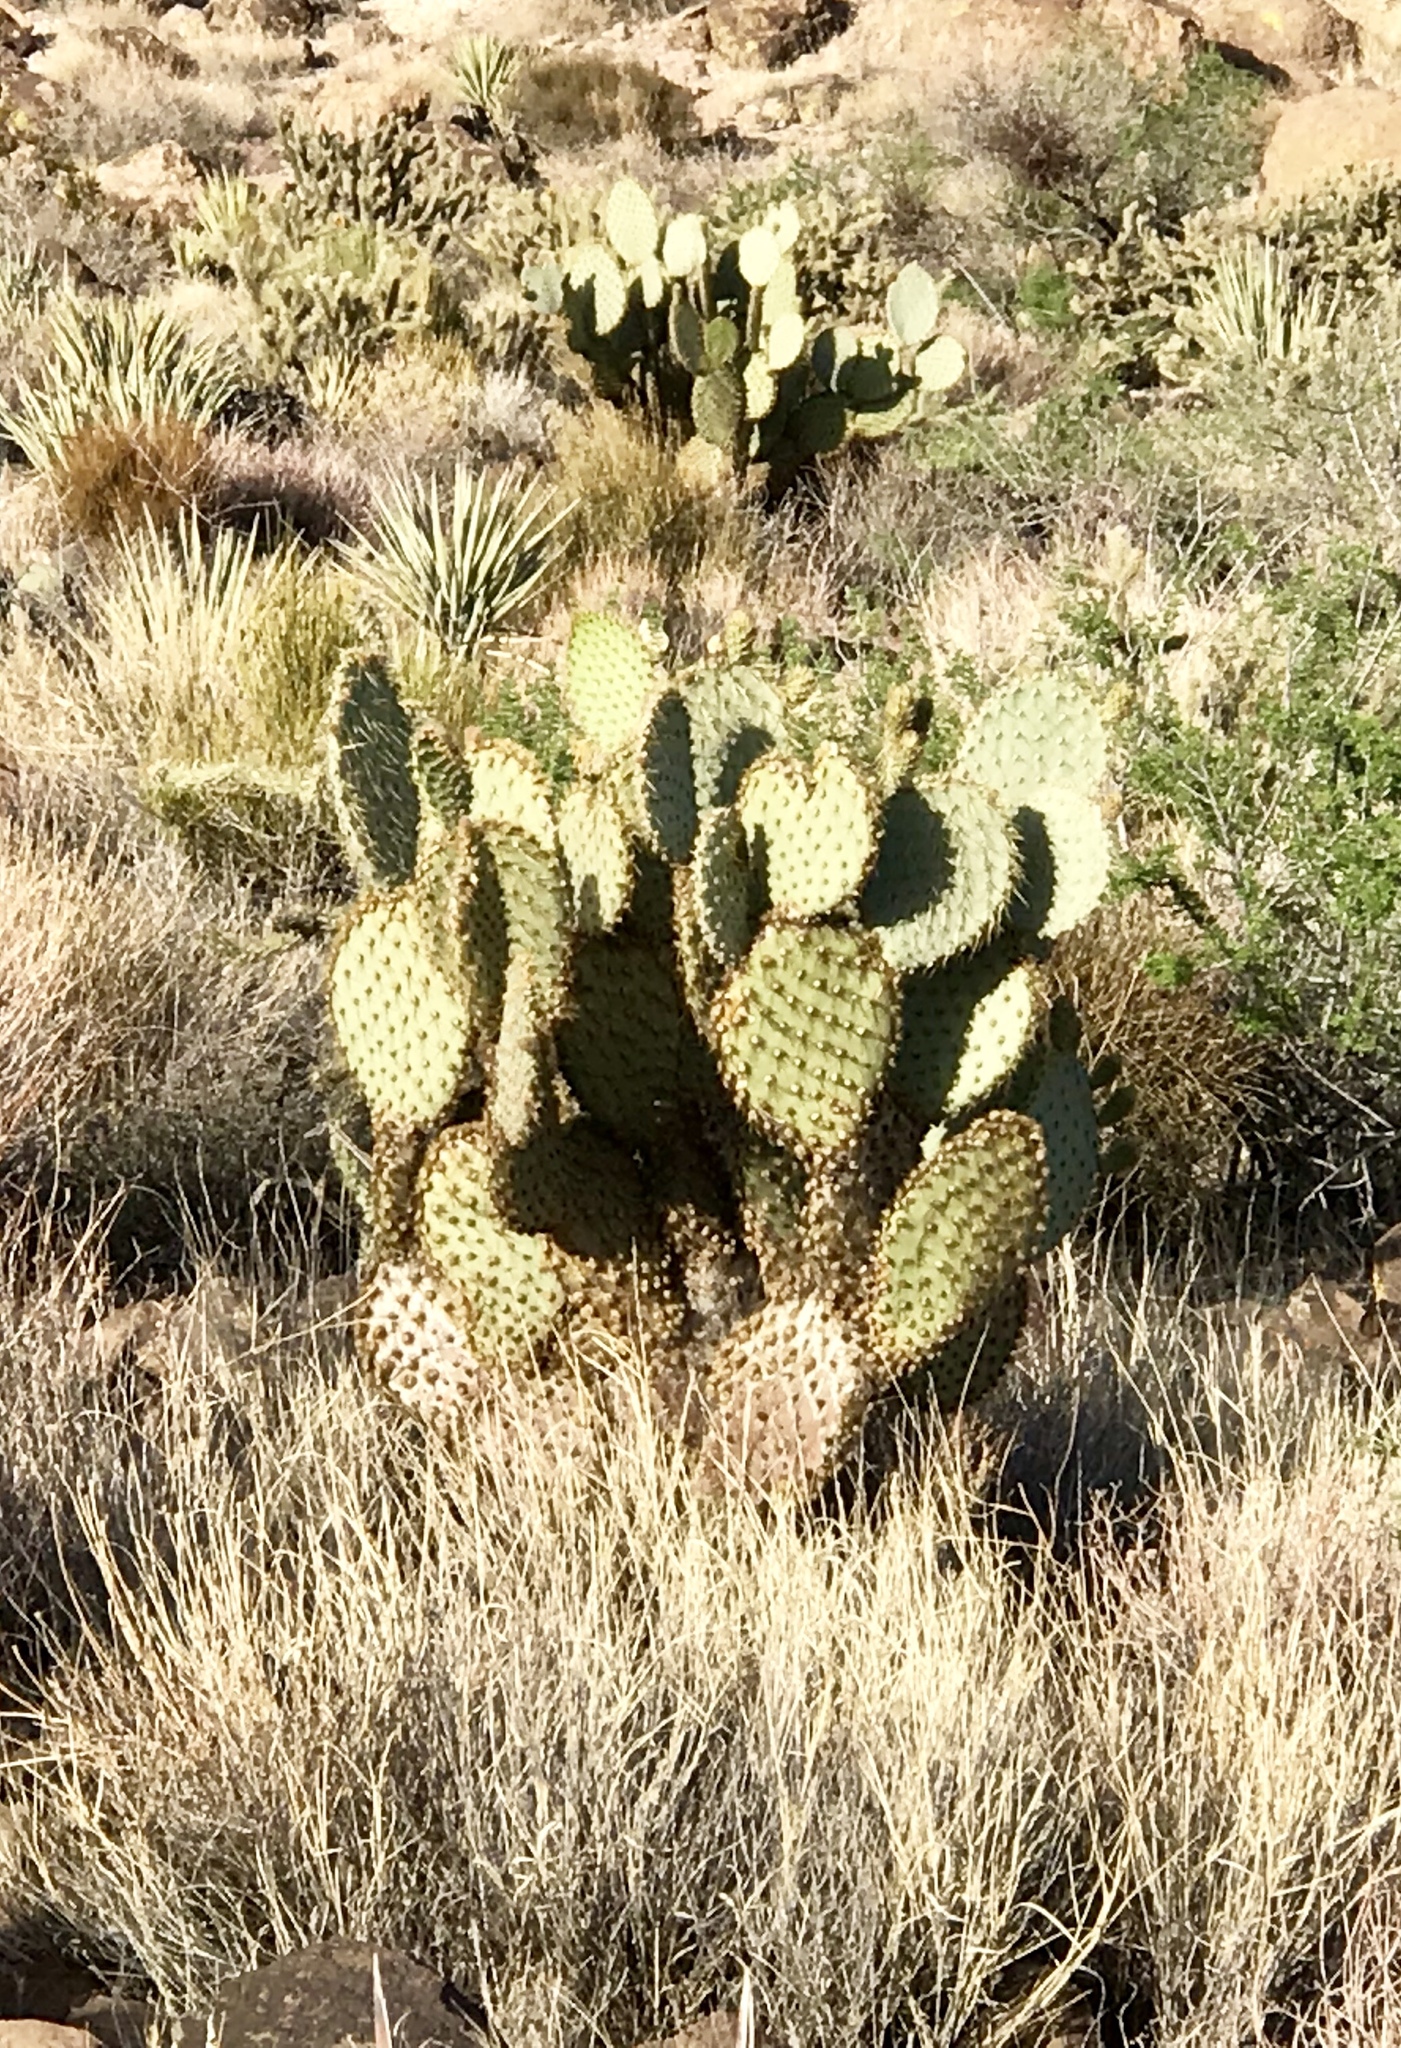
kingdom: Plantae
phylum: Tracheophyta
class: Magnoliopsida
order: Caryophyllales
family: Cactaceae
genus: Opuntia
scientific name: Opuntia chlorotica
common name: Dollar-joint prickly-pear
